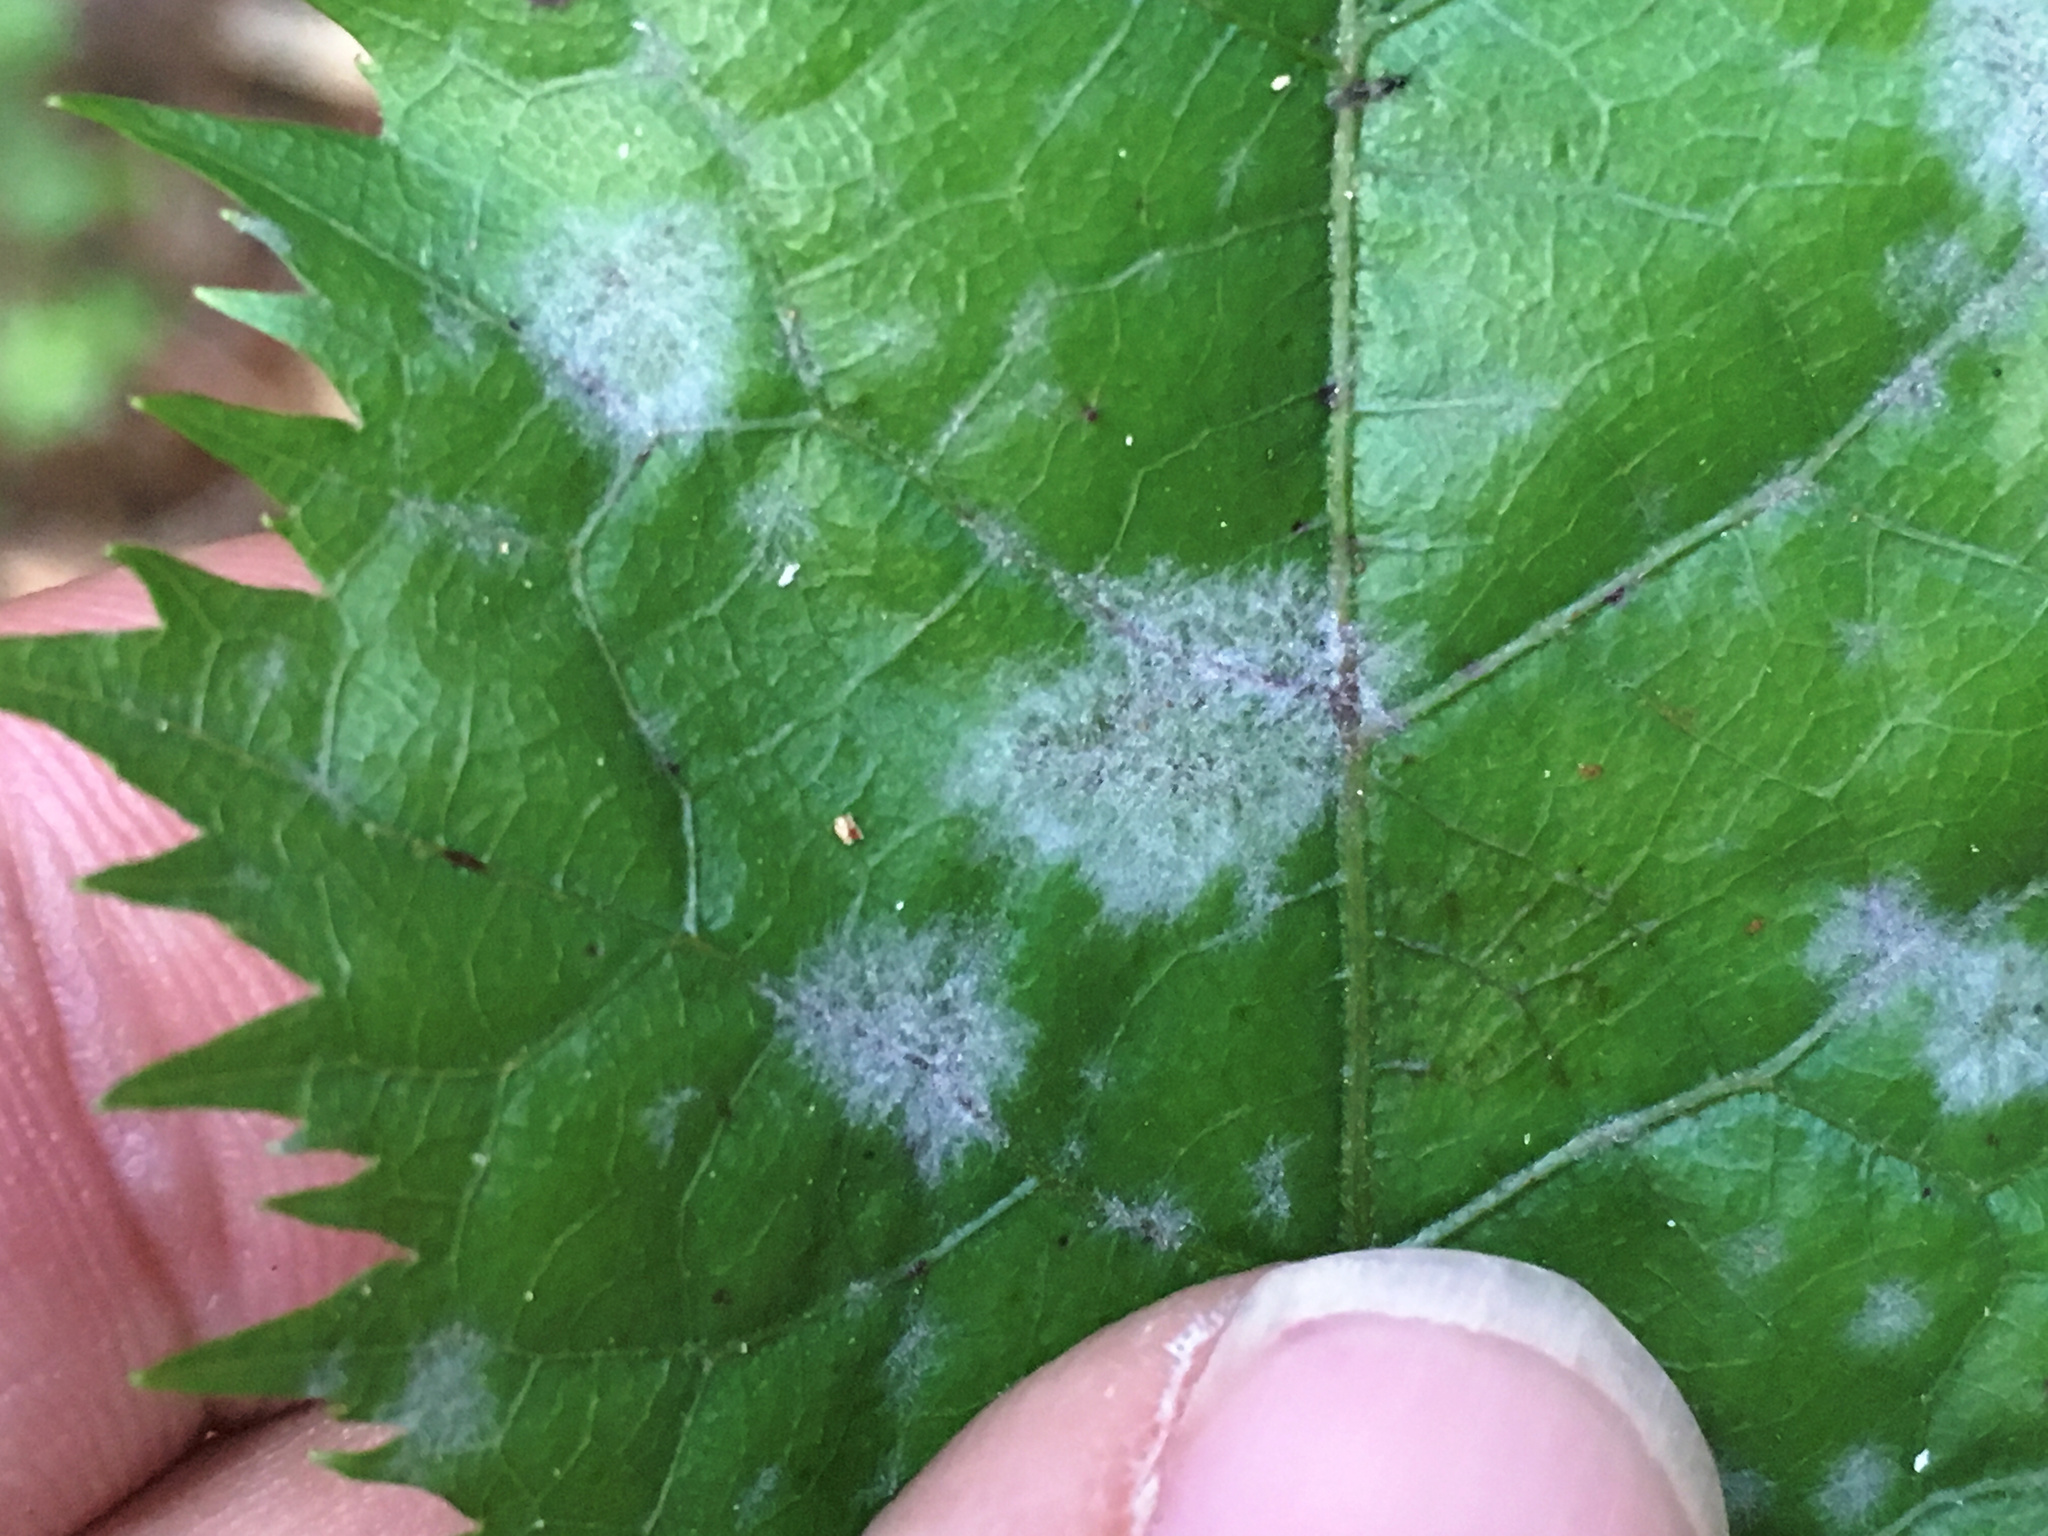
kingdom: Fungi
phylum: Ascomycota
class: Leotiomycetes
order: Helotiales
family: Erysiphaceae
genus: Erysiphe
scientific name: Erysiphe densa
